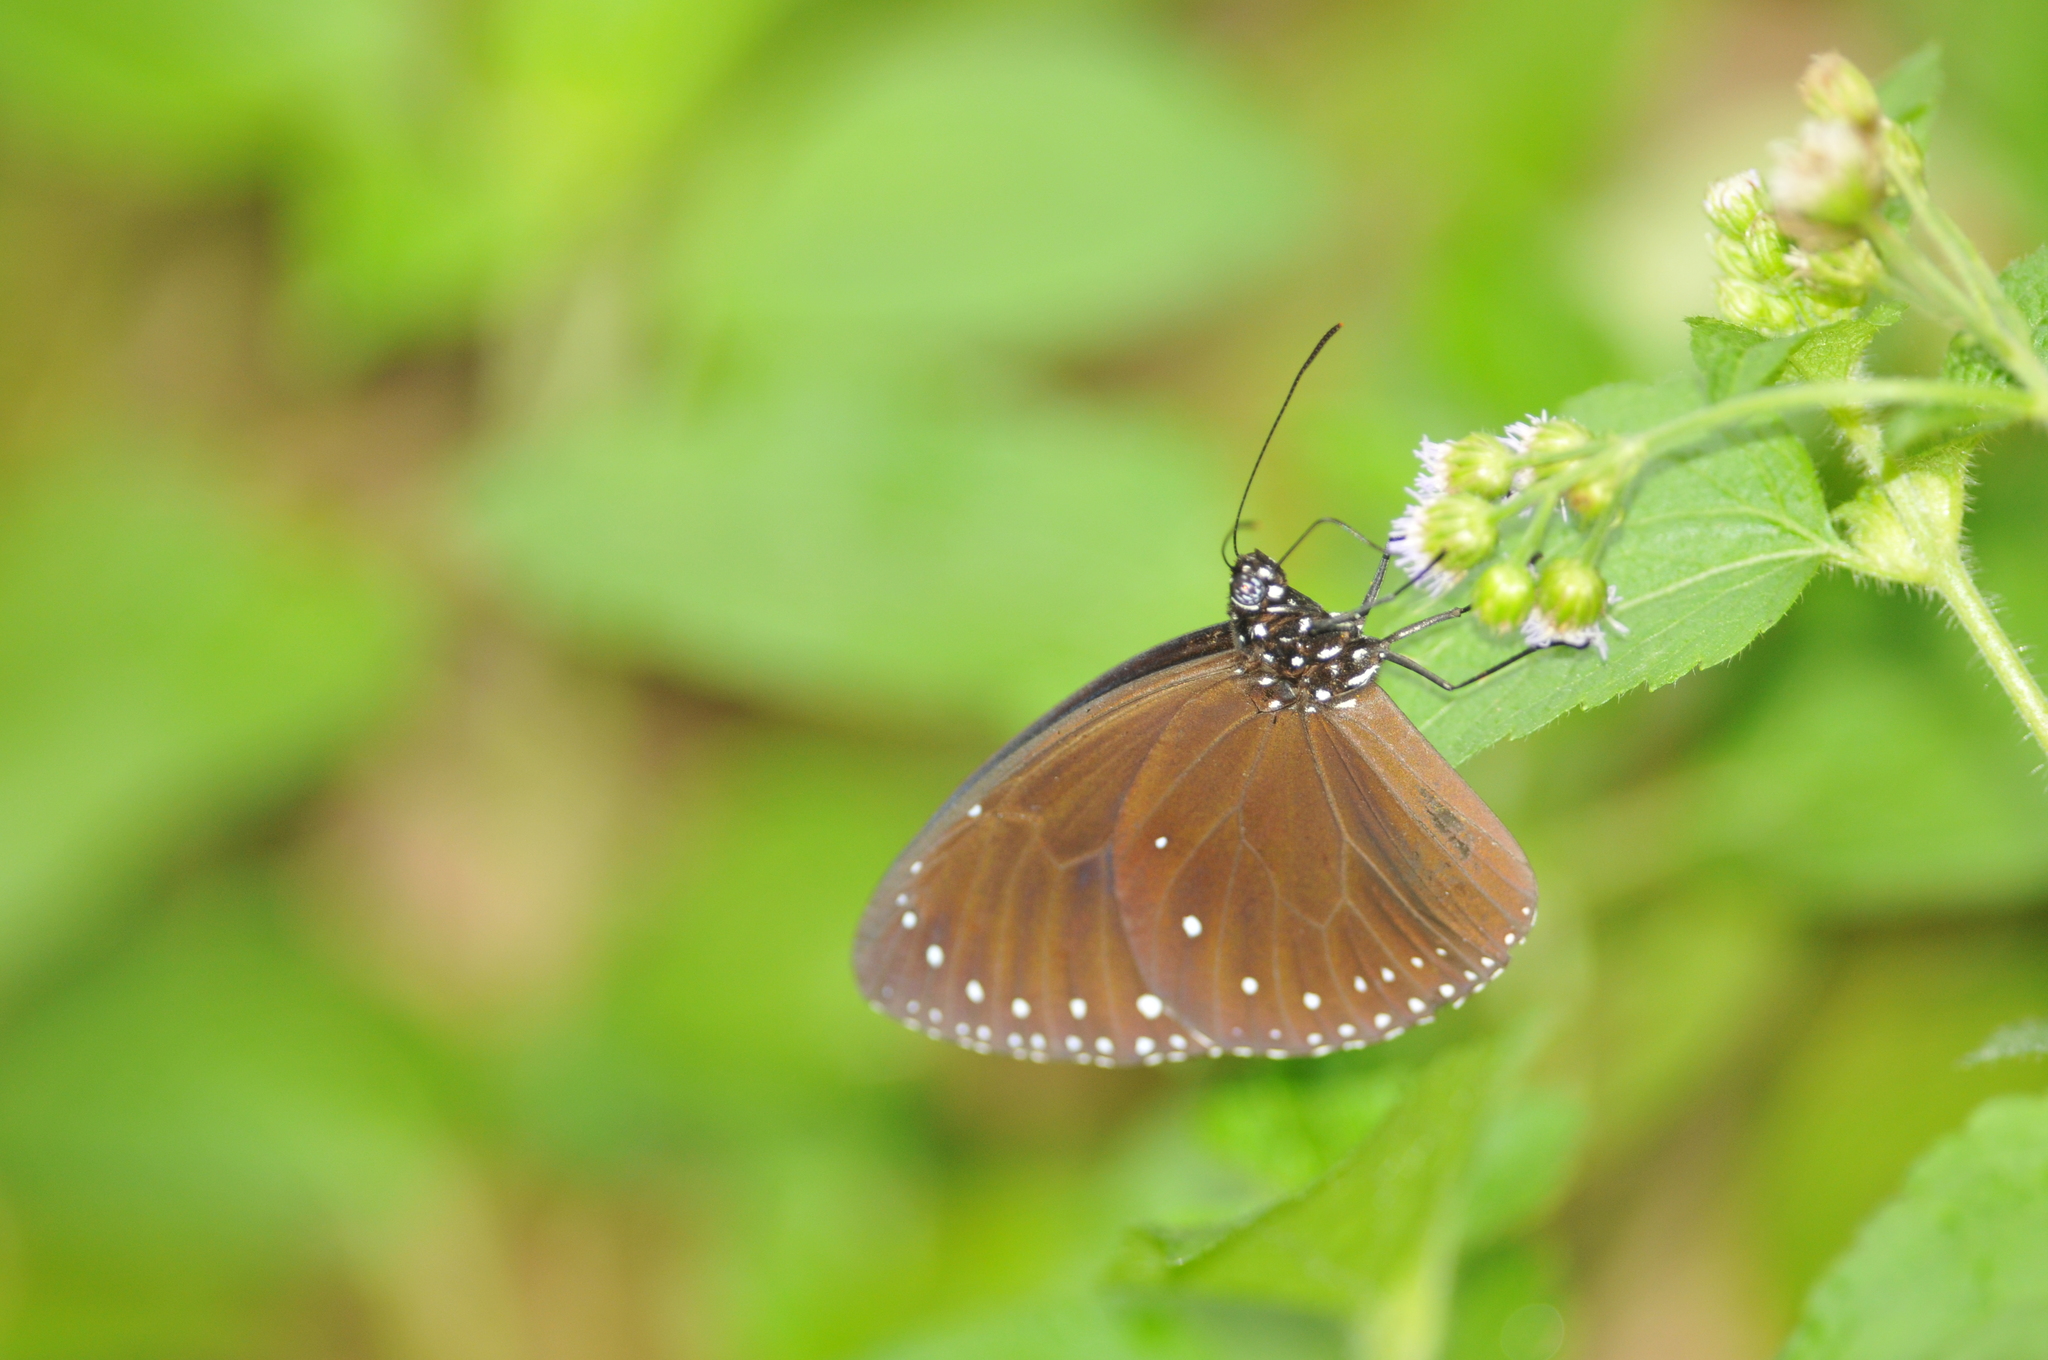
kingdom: Animalia
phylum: Arthropoda
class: Insecta
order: Lepidoptera
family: Nymphalidae
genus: Euploea
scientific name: Euploea tulliolus
